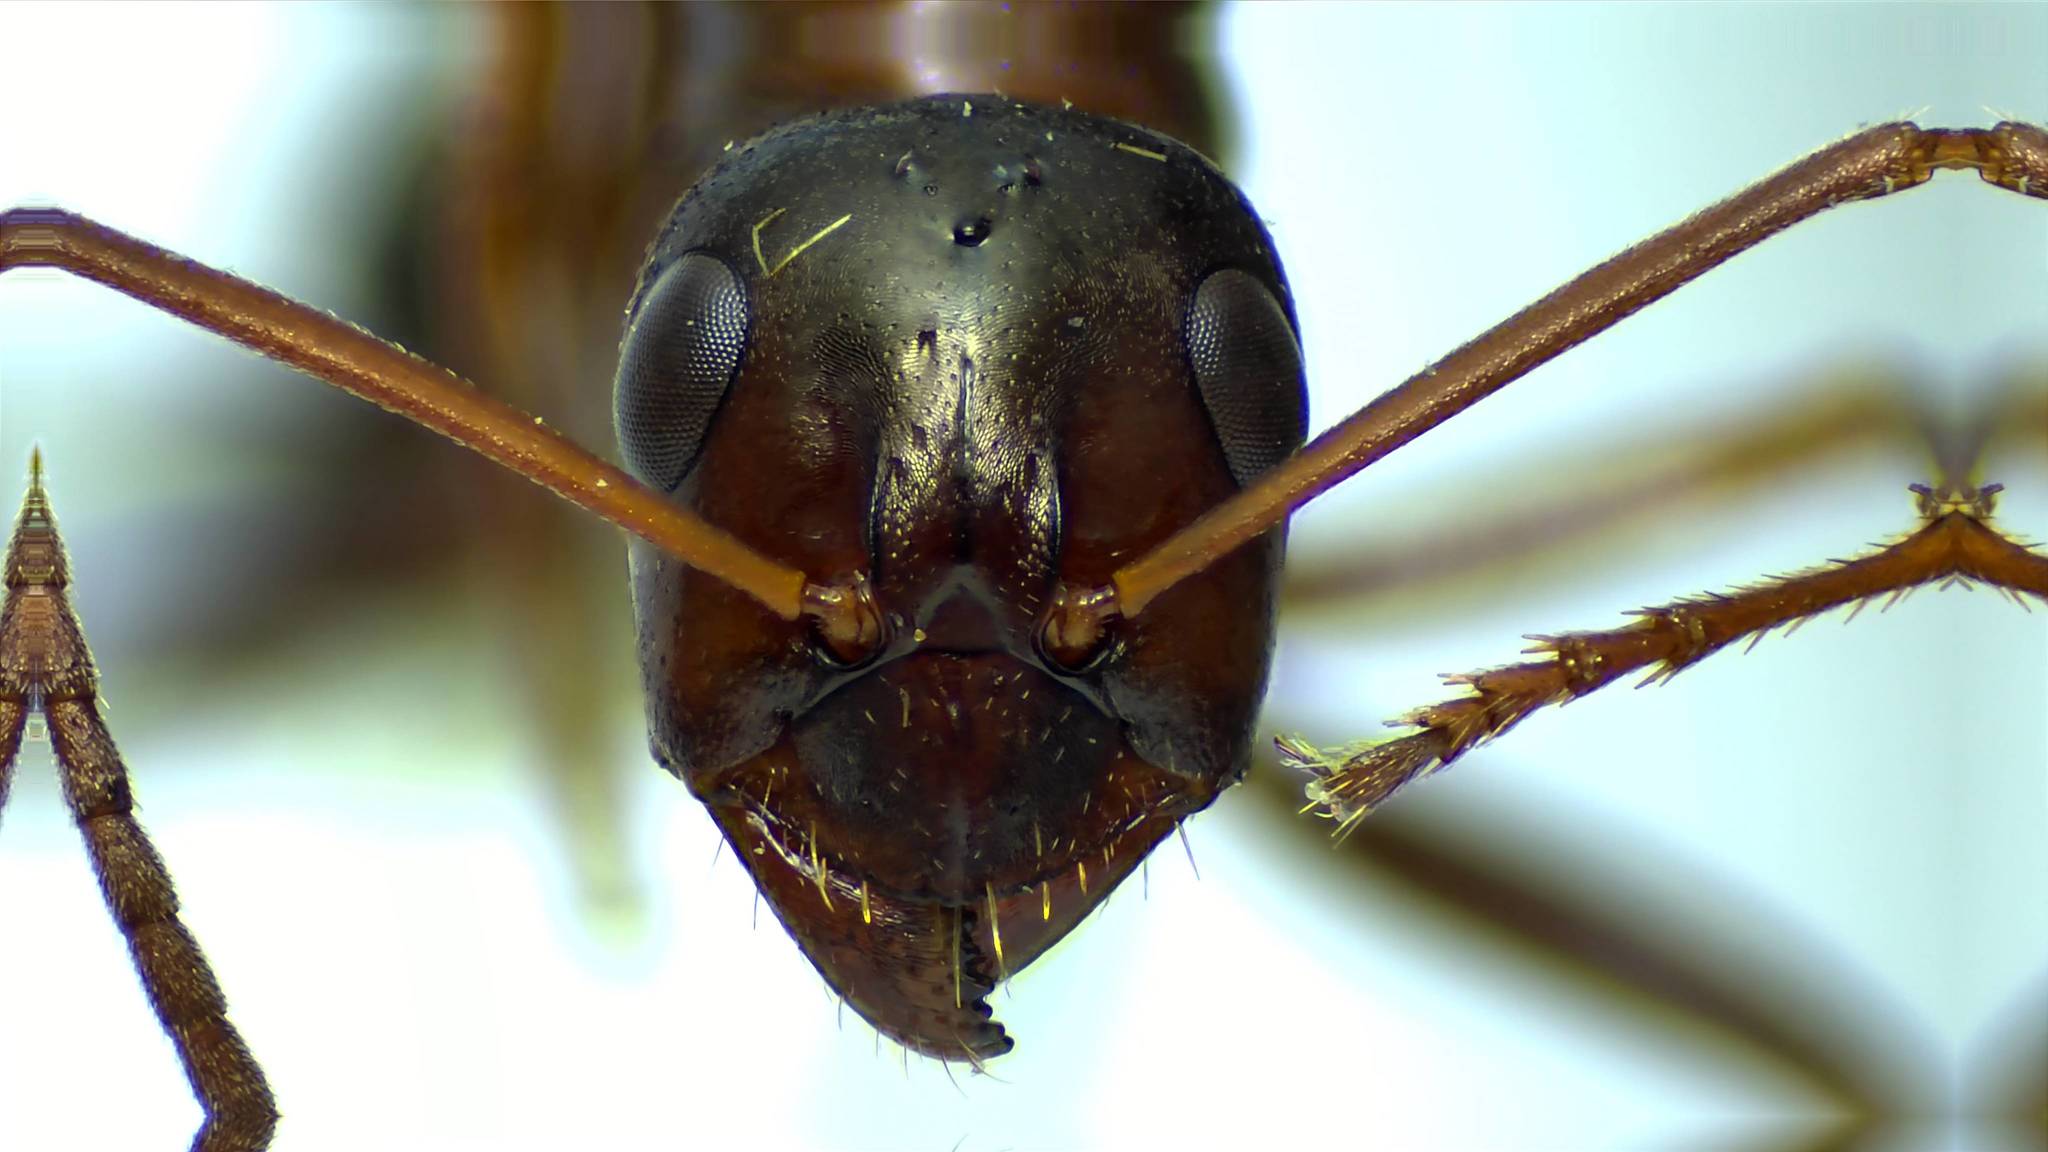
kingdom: Animalia
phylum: Arthropoda
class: Insecta
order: Hymenoptera
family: Formicidae
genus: Formica
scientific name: Formica pallidefulva
